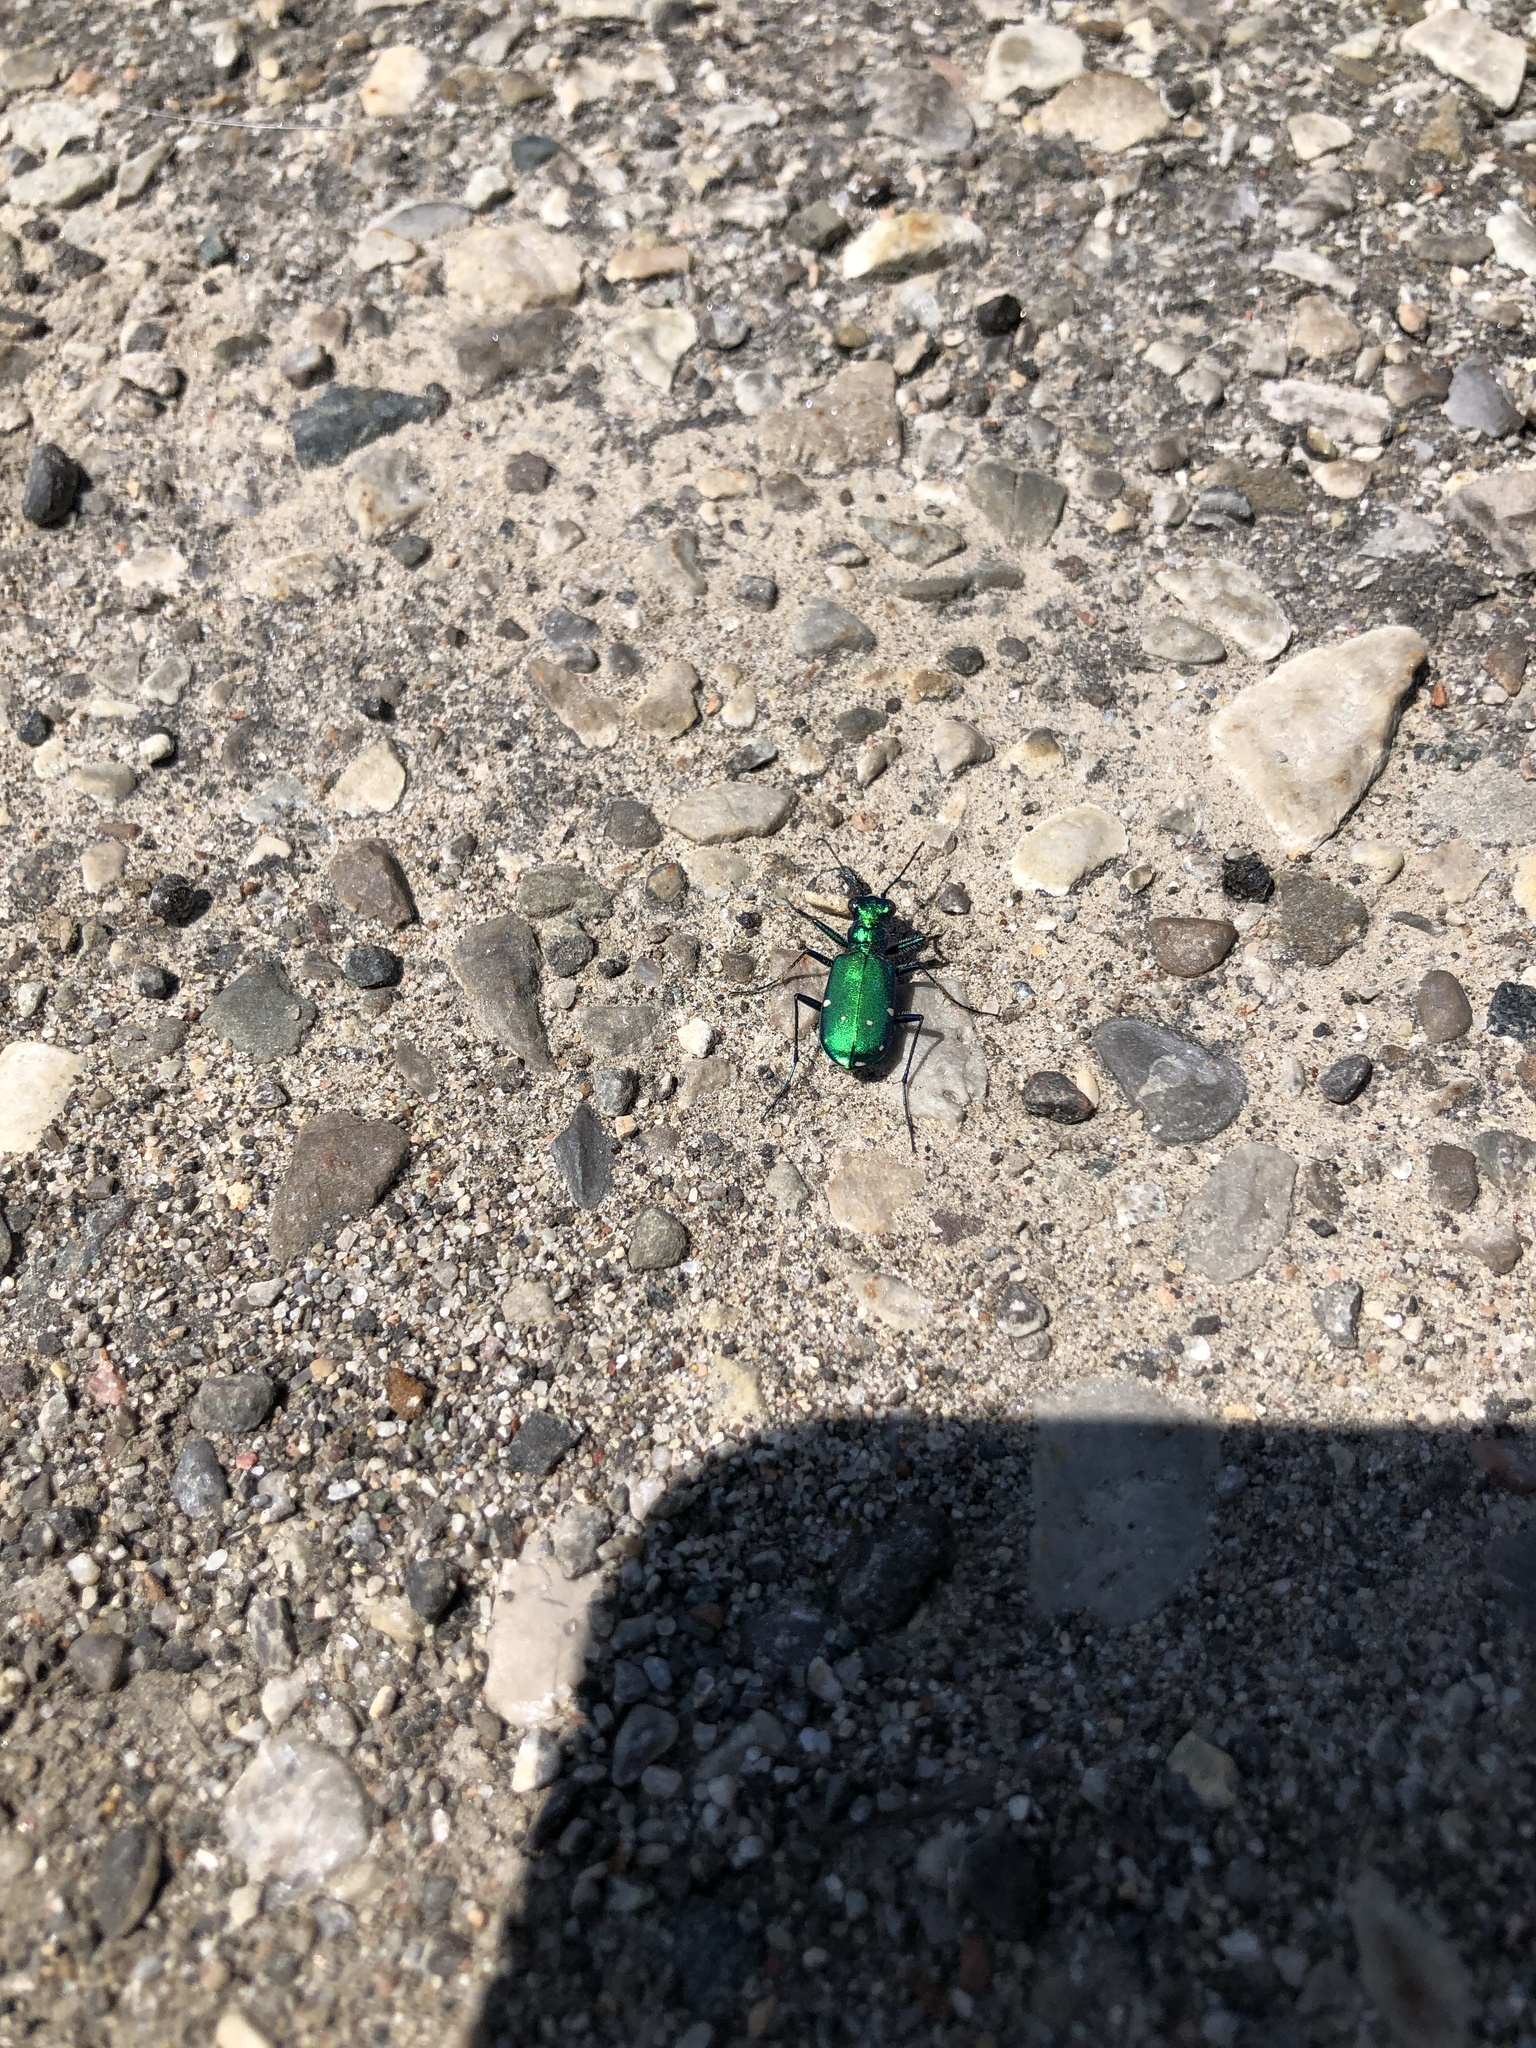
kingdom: Animalia
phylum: Arthropoda
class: Insecta
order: Coleoptera
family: Carabidae
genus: Cicindela
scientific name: Cicindela sexguttata
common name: Six-spotted tiger beetle
